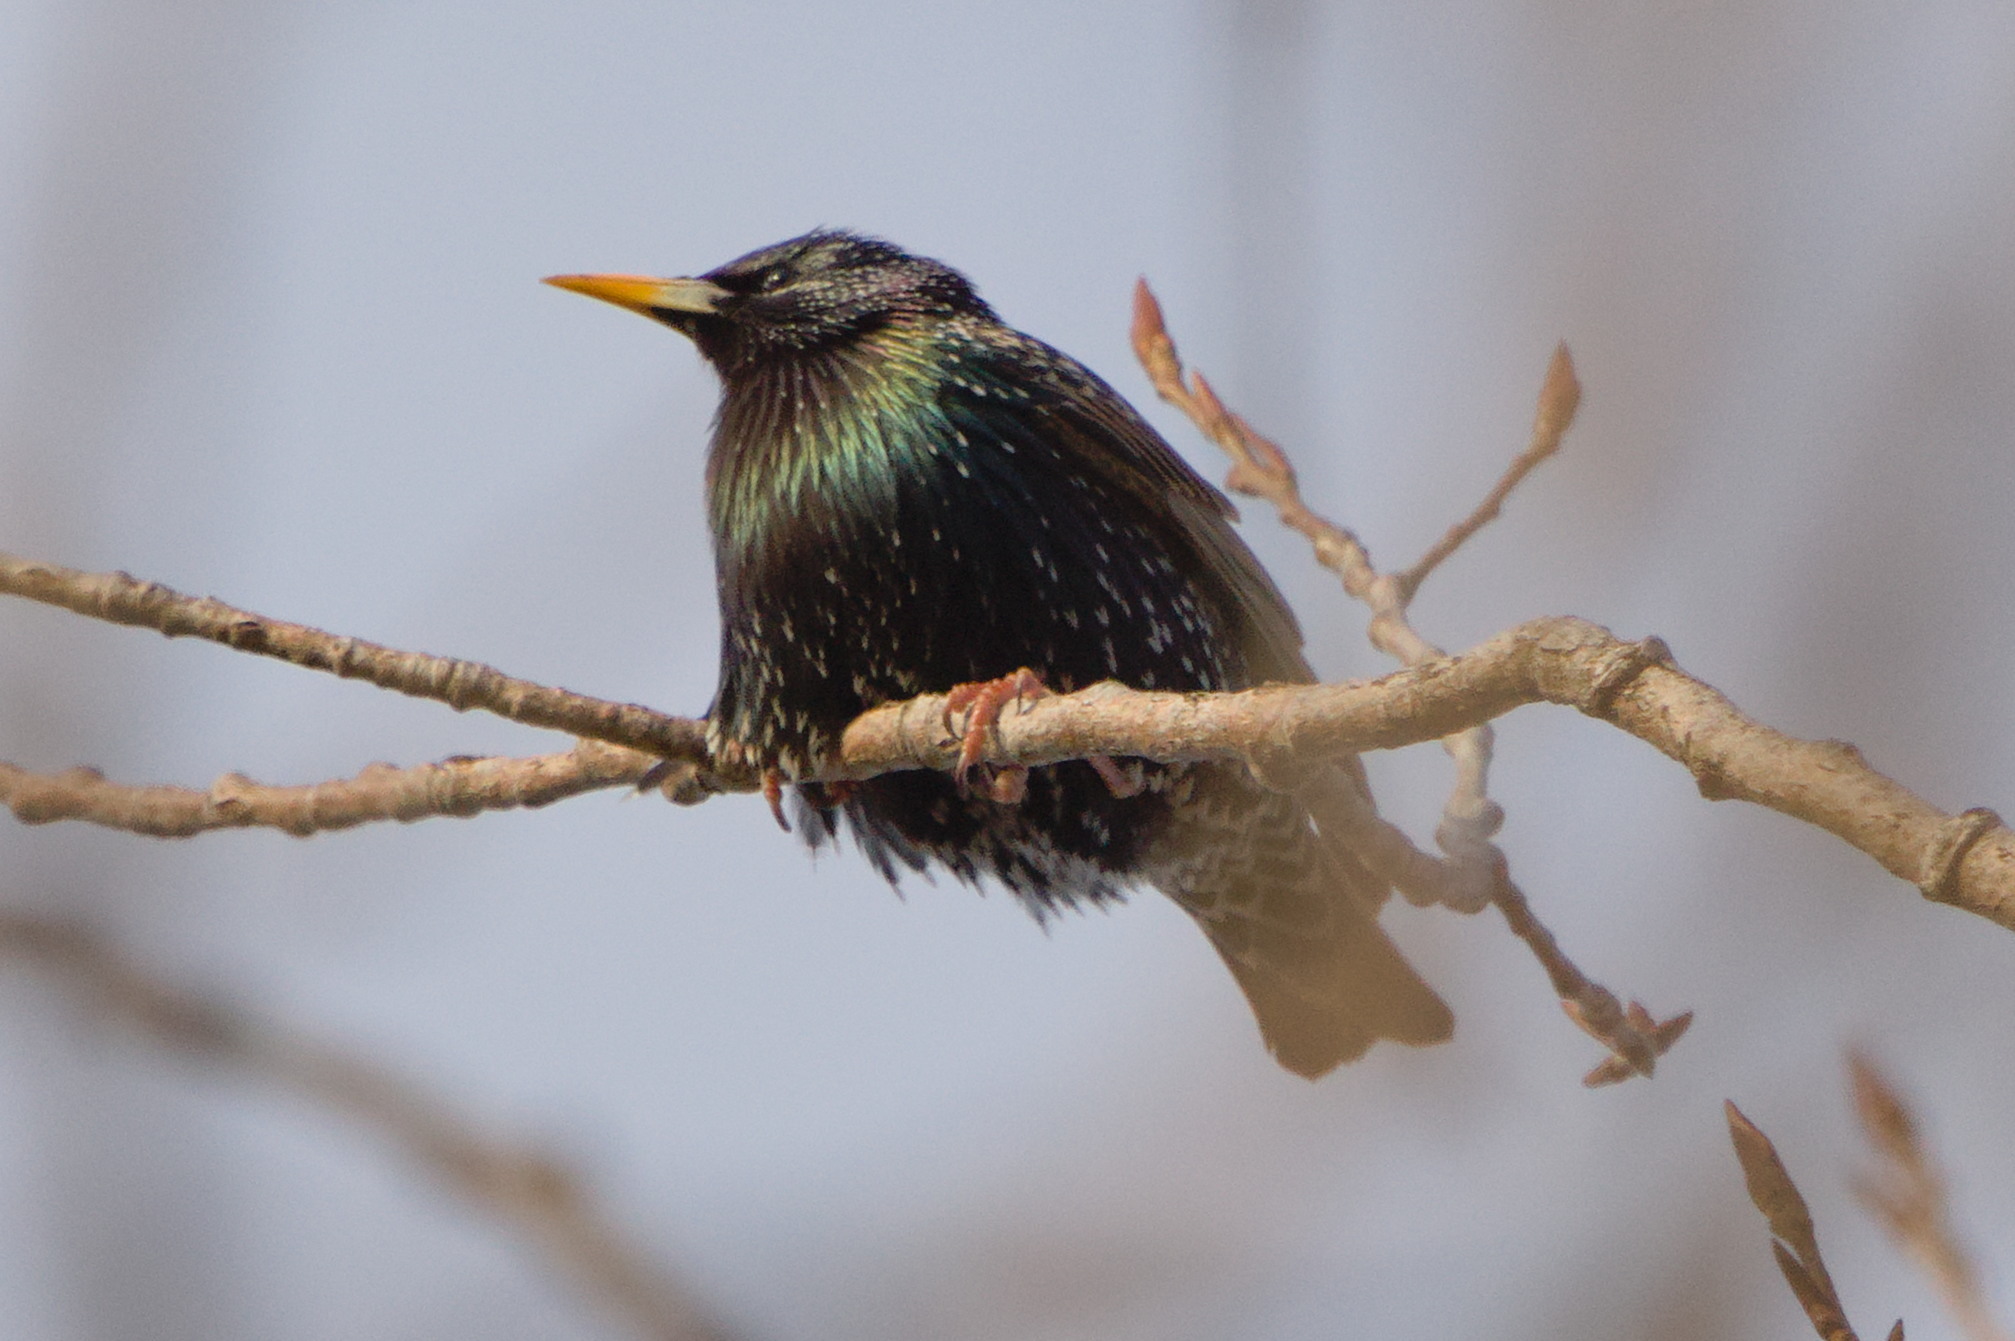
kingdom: Animalia
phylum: Chordata
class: Aves
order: Passeriformes
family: Sturnidae
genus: Sturnus
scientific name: Sturnus vulgaris
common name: Common starling
